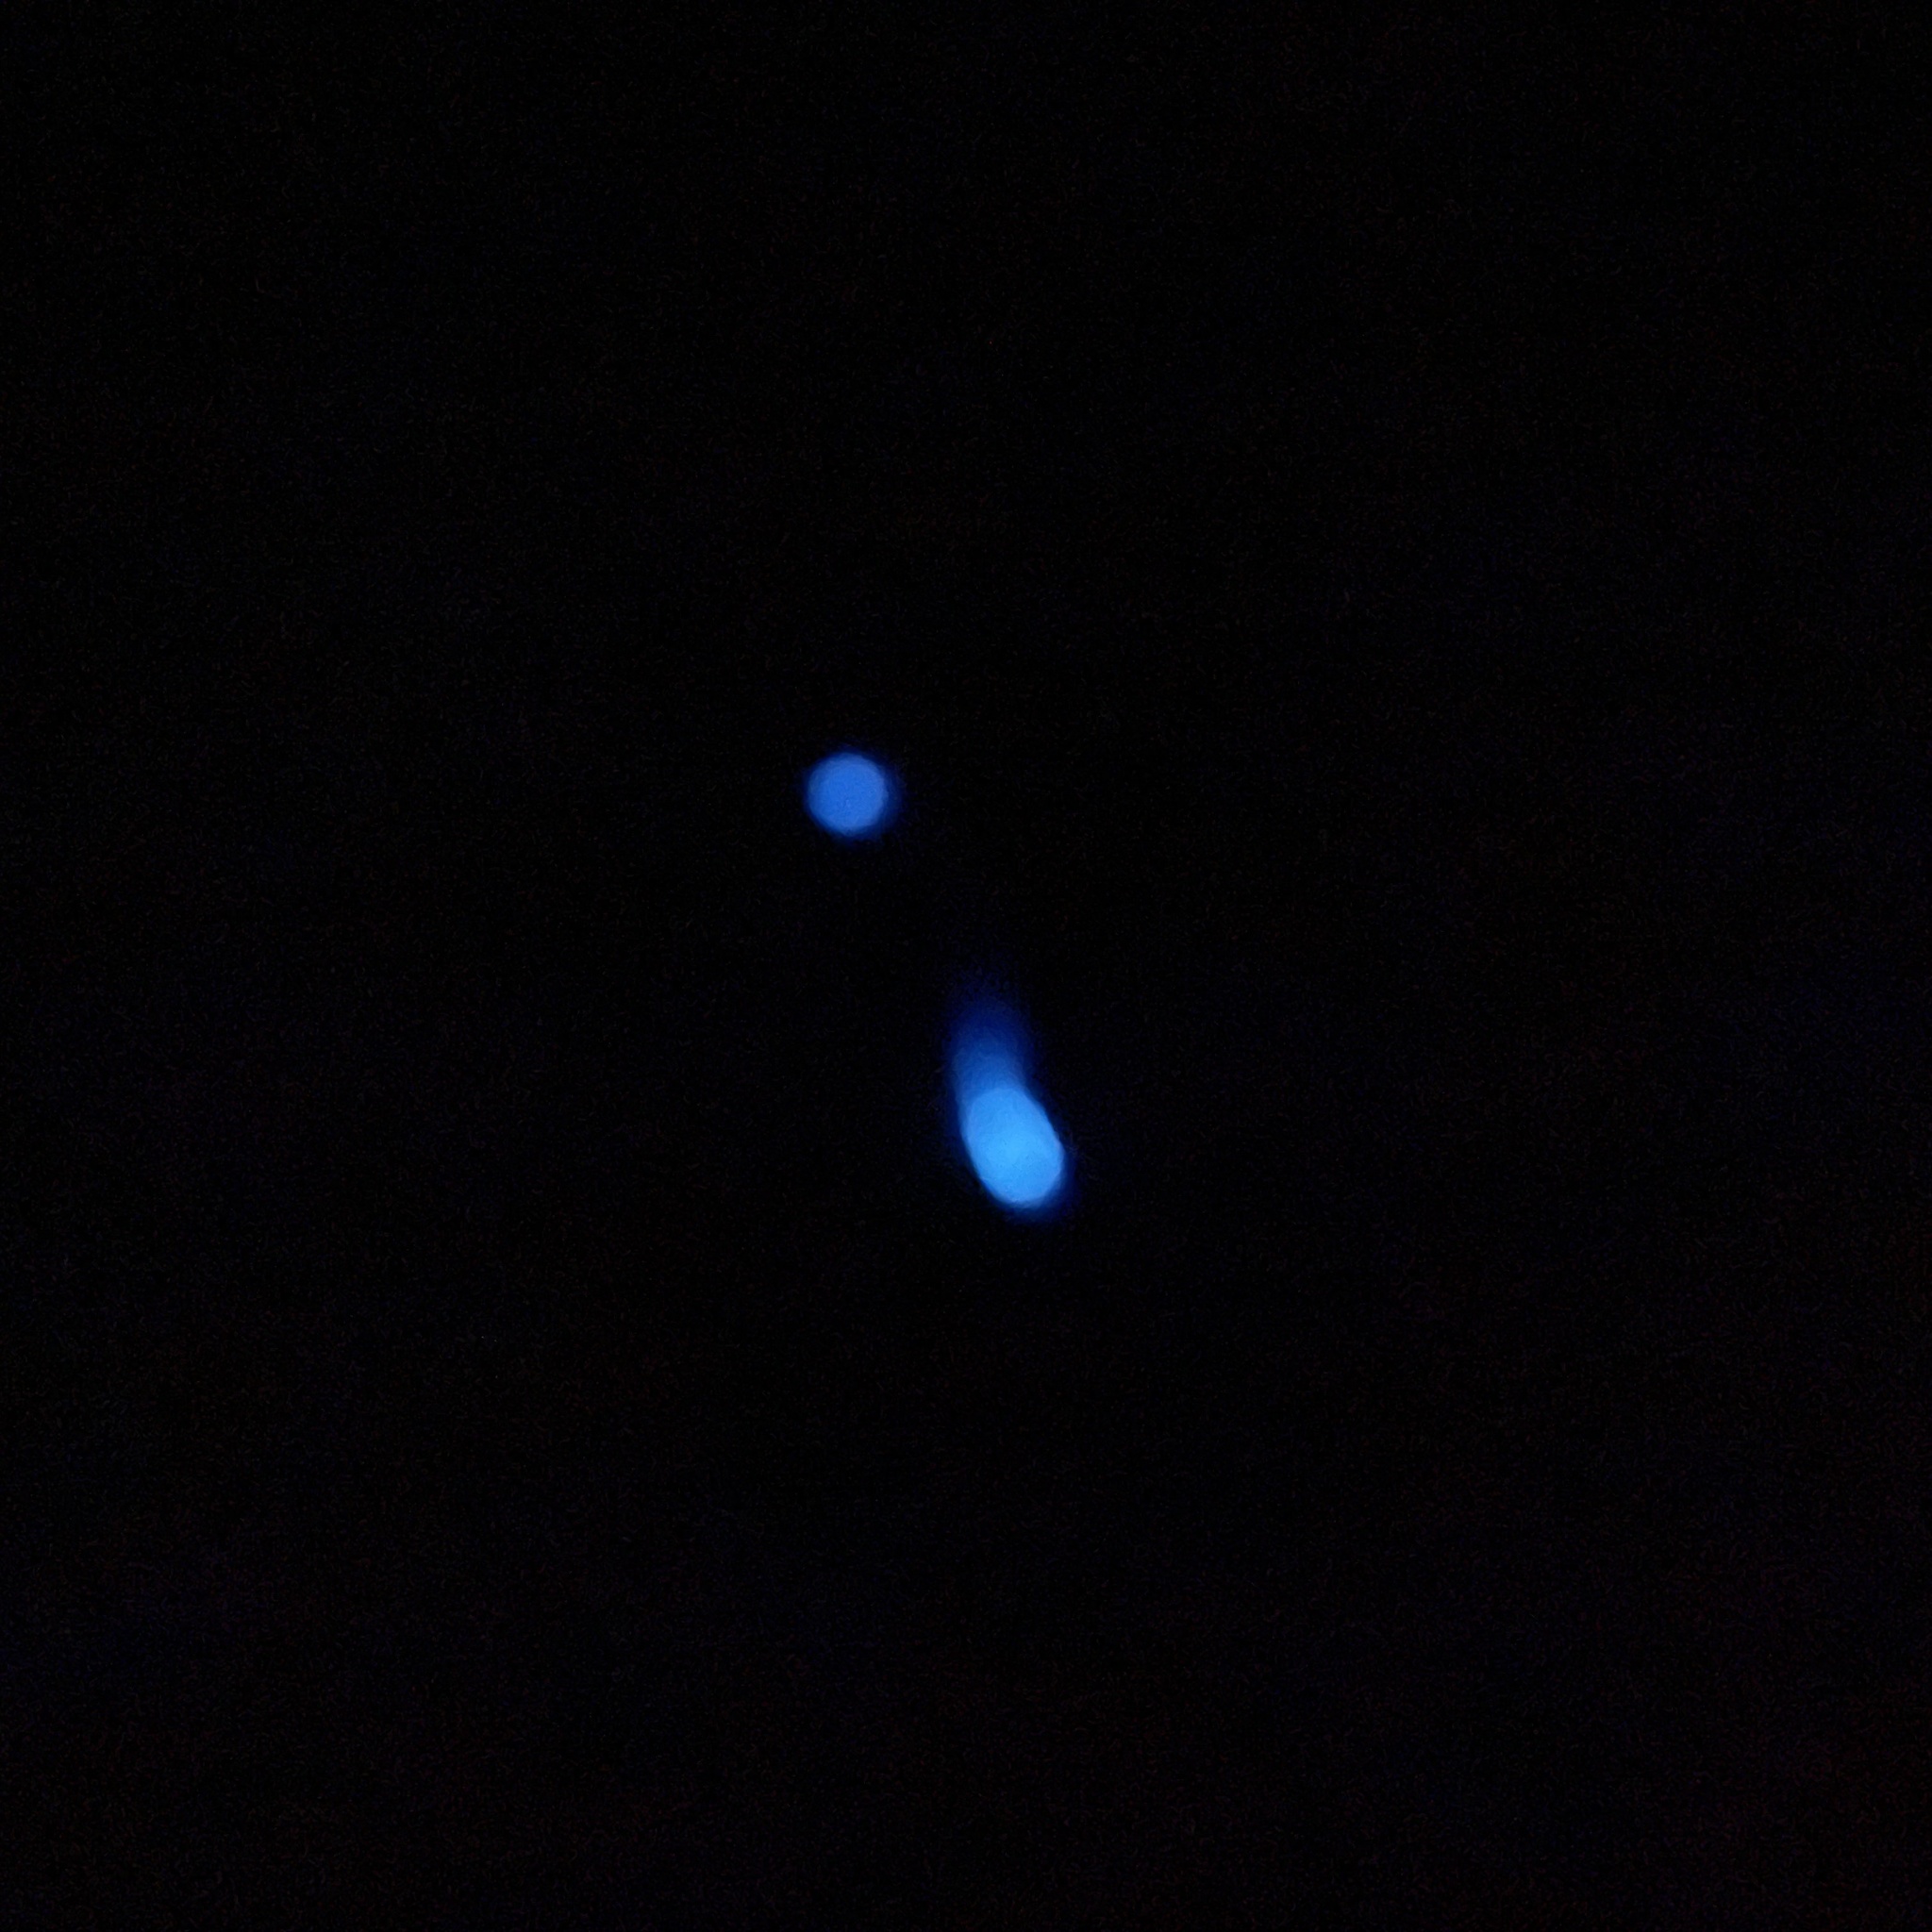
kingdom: Animalia
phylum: Arthropoda
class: Insecta
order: Diptera
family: Keroplatidae
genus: Orfelia
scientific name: Orfelia fultoni
